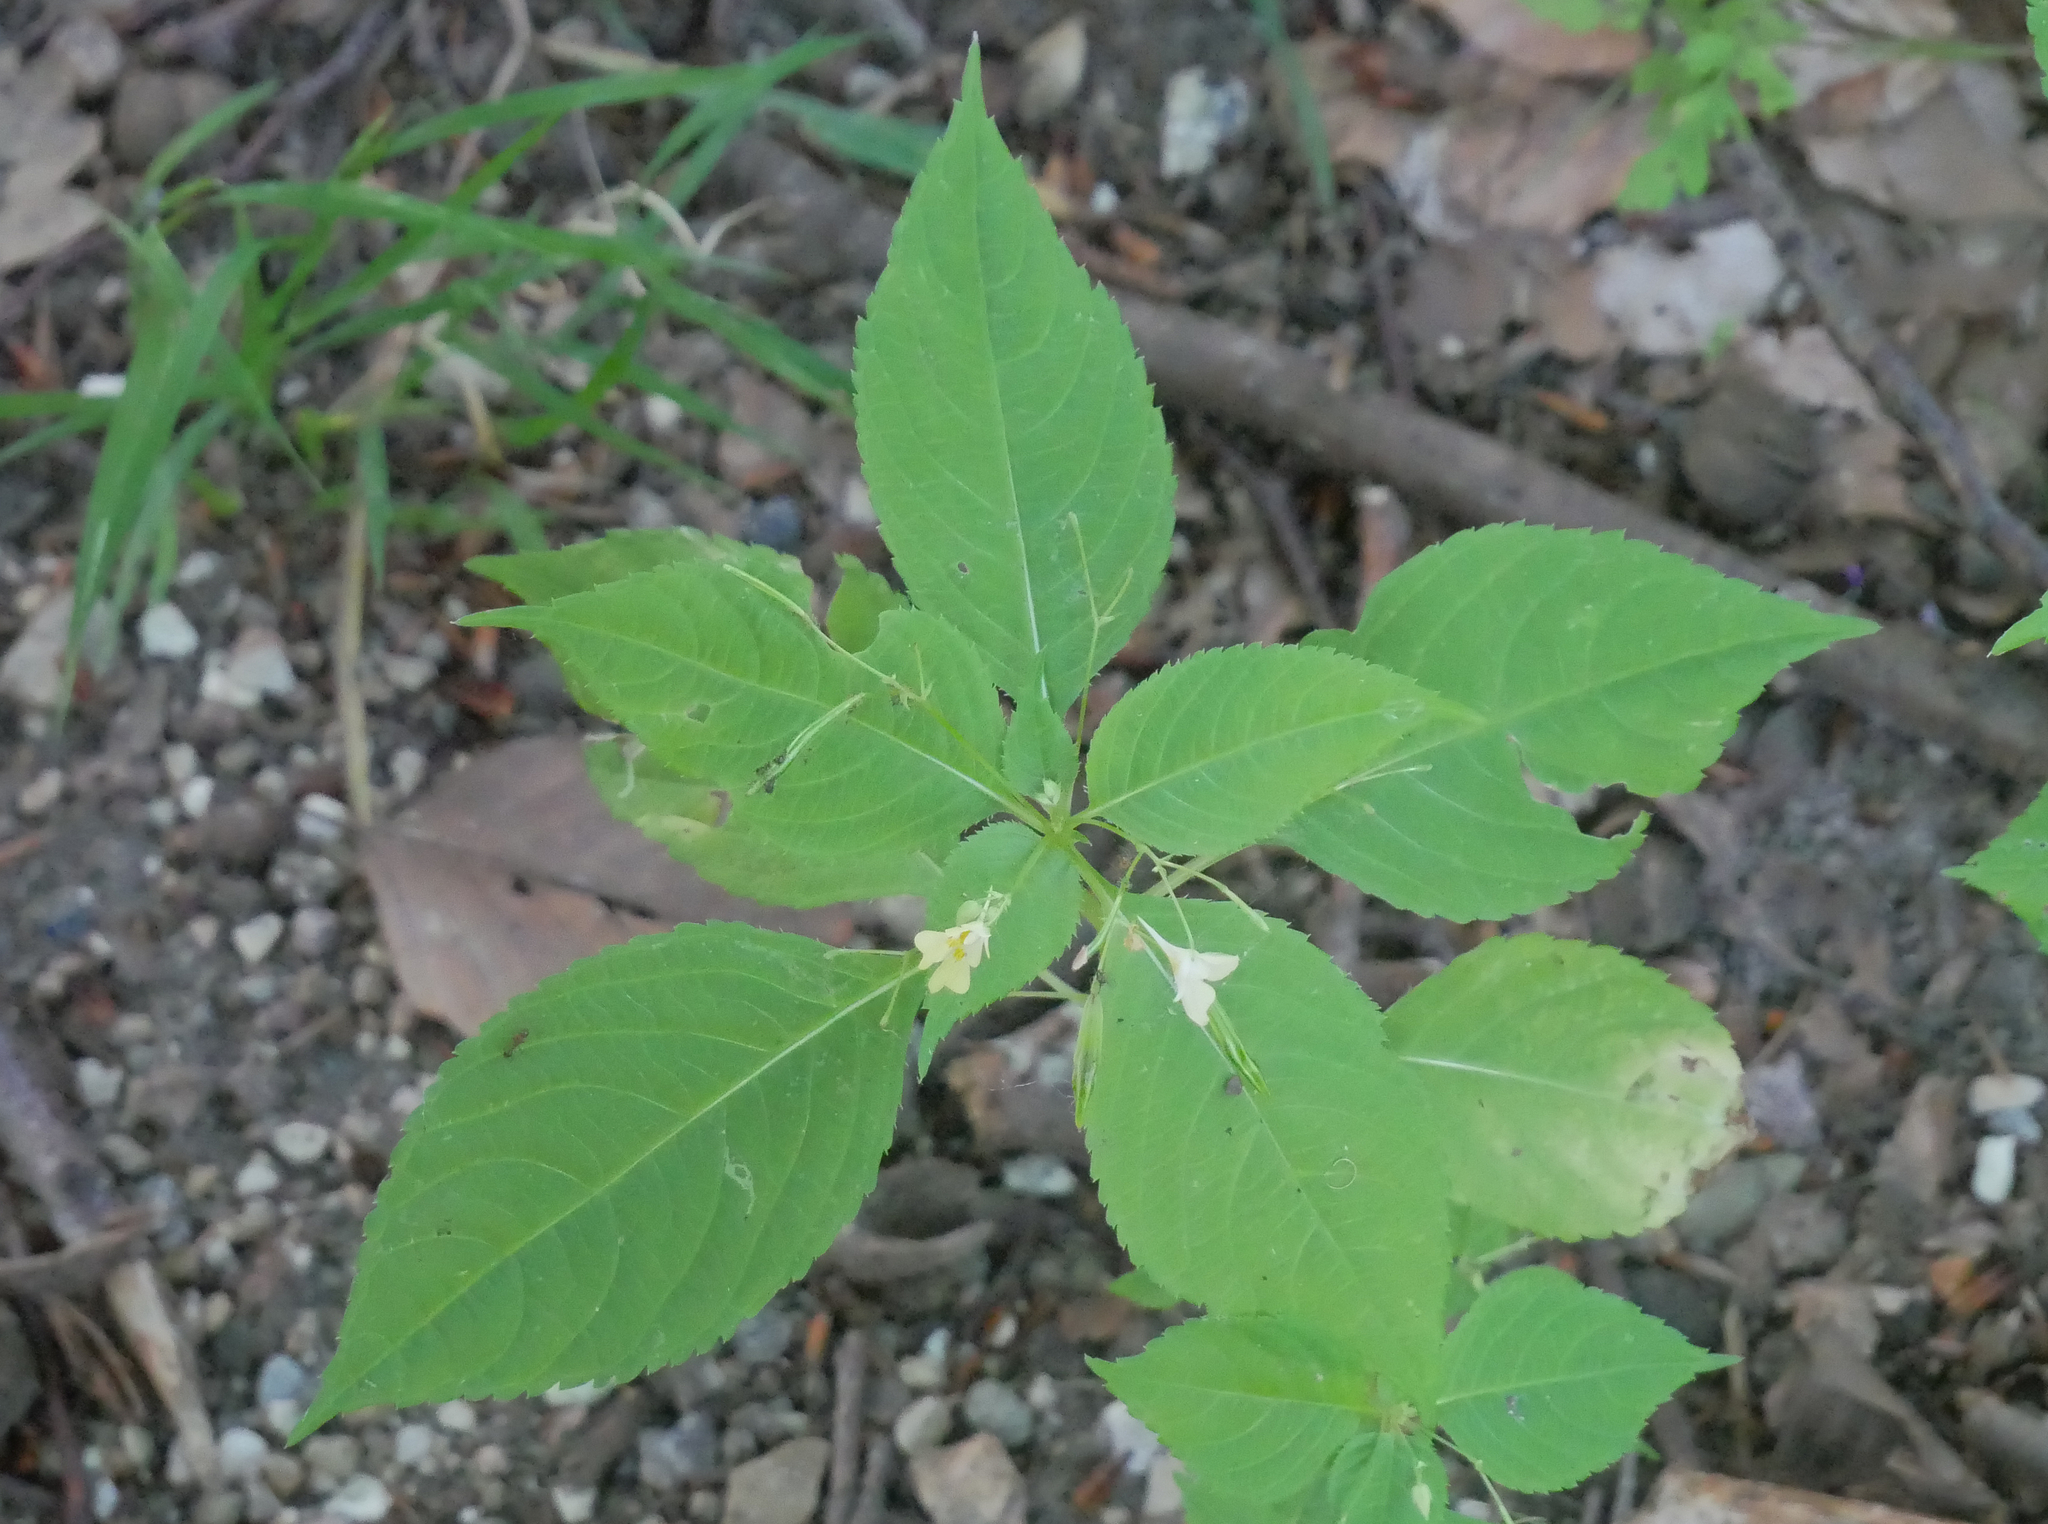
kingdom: Plantae
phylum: Tracheophyta
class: Magnoliopsida
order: Ericales
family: Balsaminaceae
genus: Impatiens
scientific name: Impatiens parviflora
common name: Small balsam
